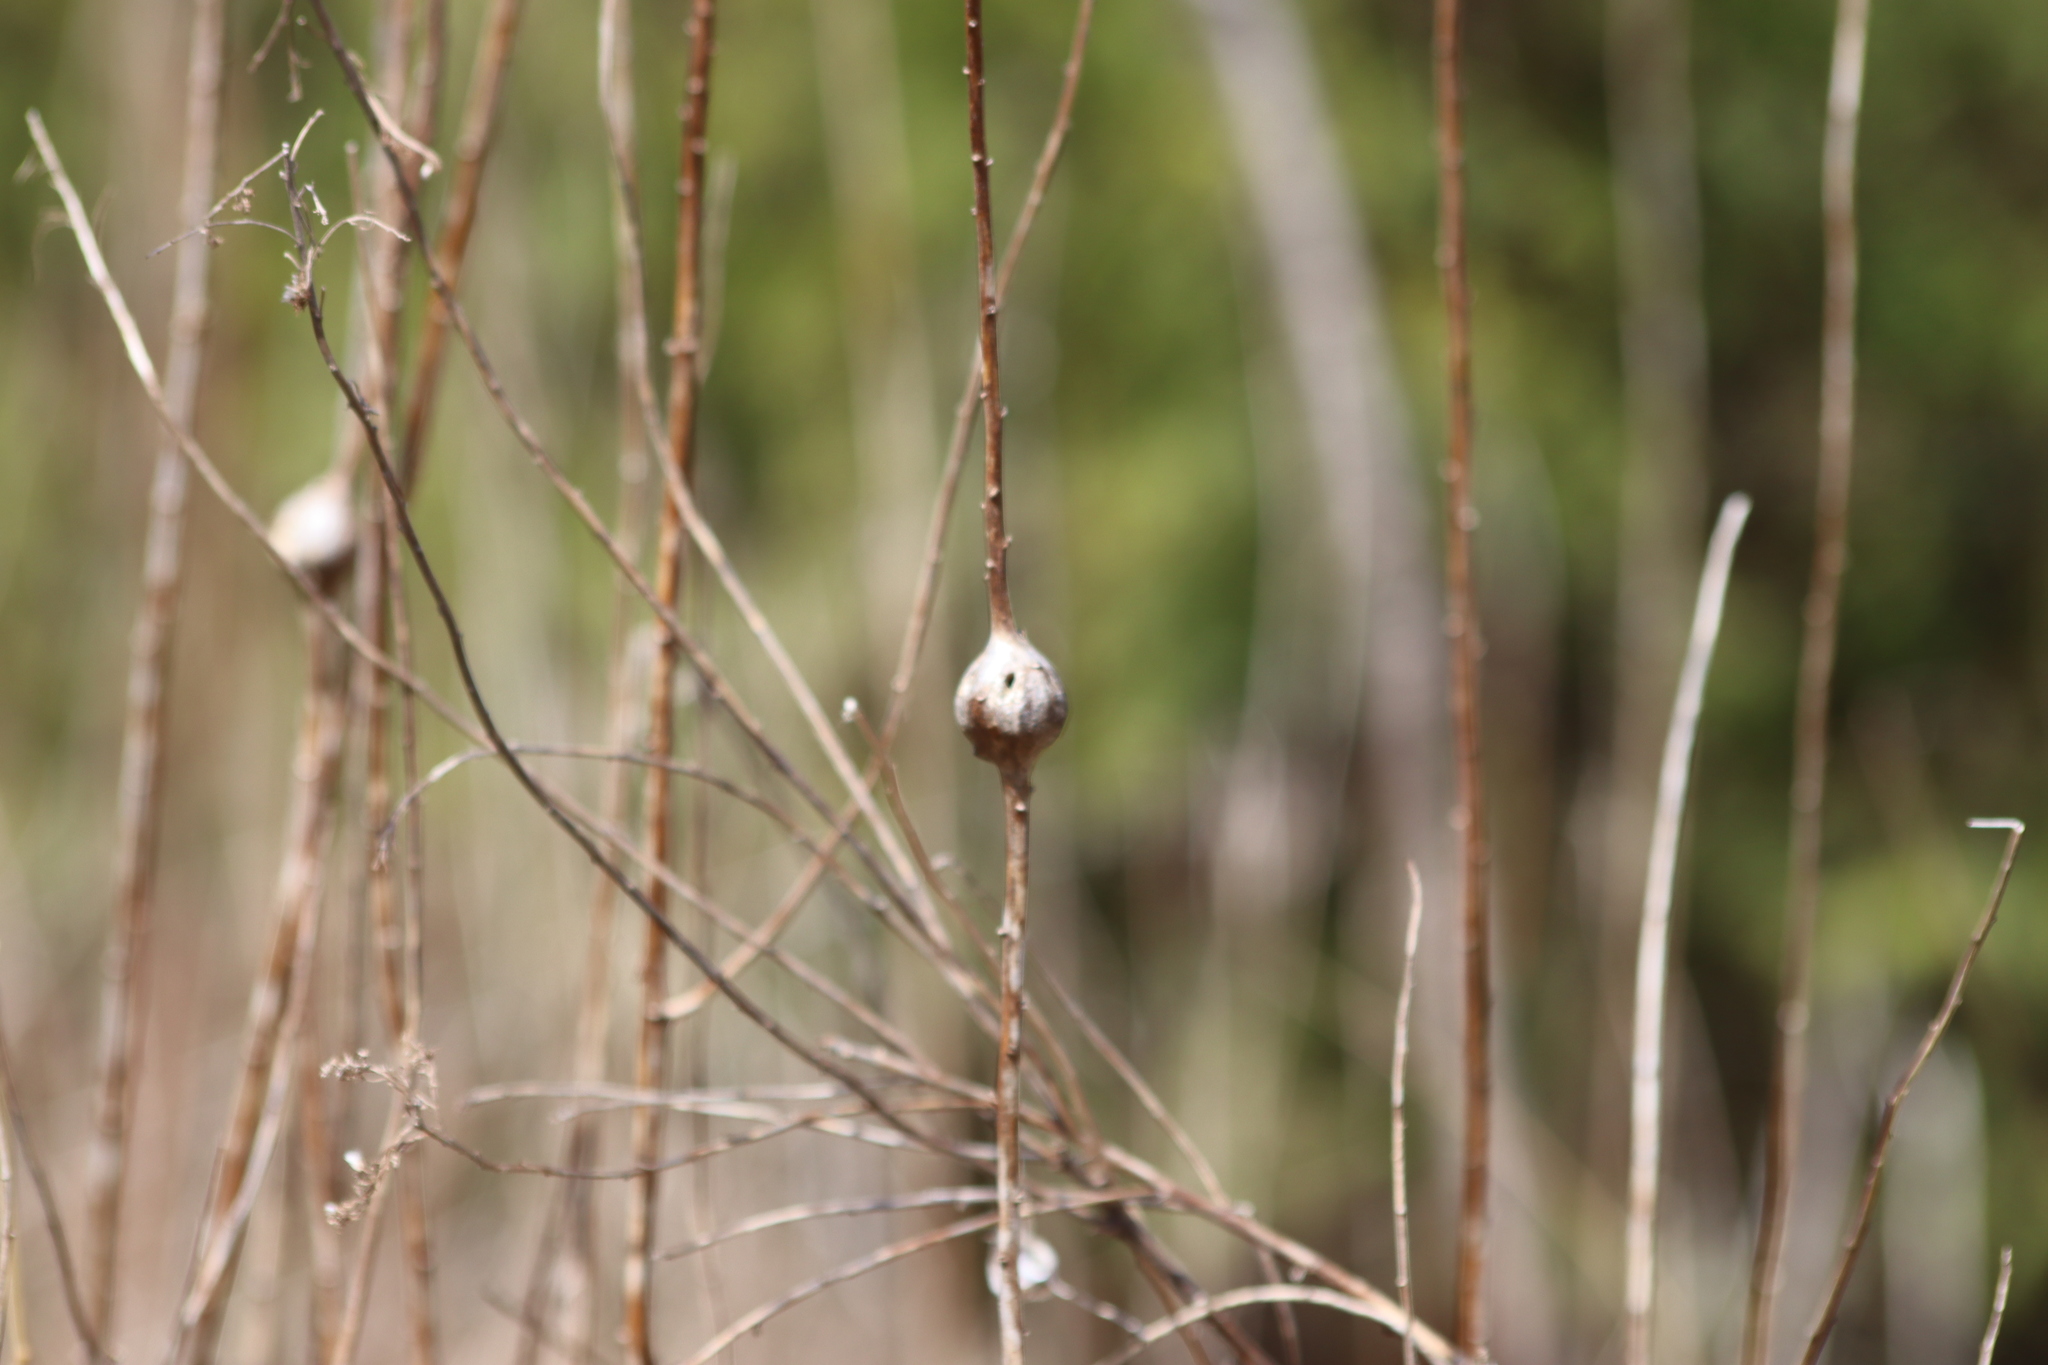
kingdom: Animalia
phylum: Arthropoda
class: Insecta
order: Diptera
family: Tephritidae
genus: Eurosta
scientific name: Eurosta solidaginis
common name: Goldenrod gall fly
